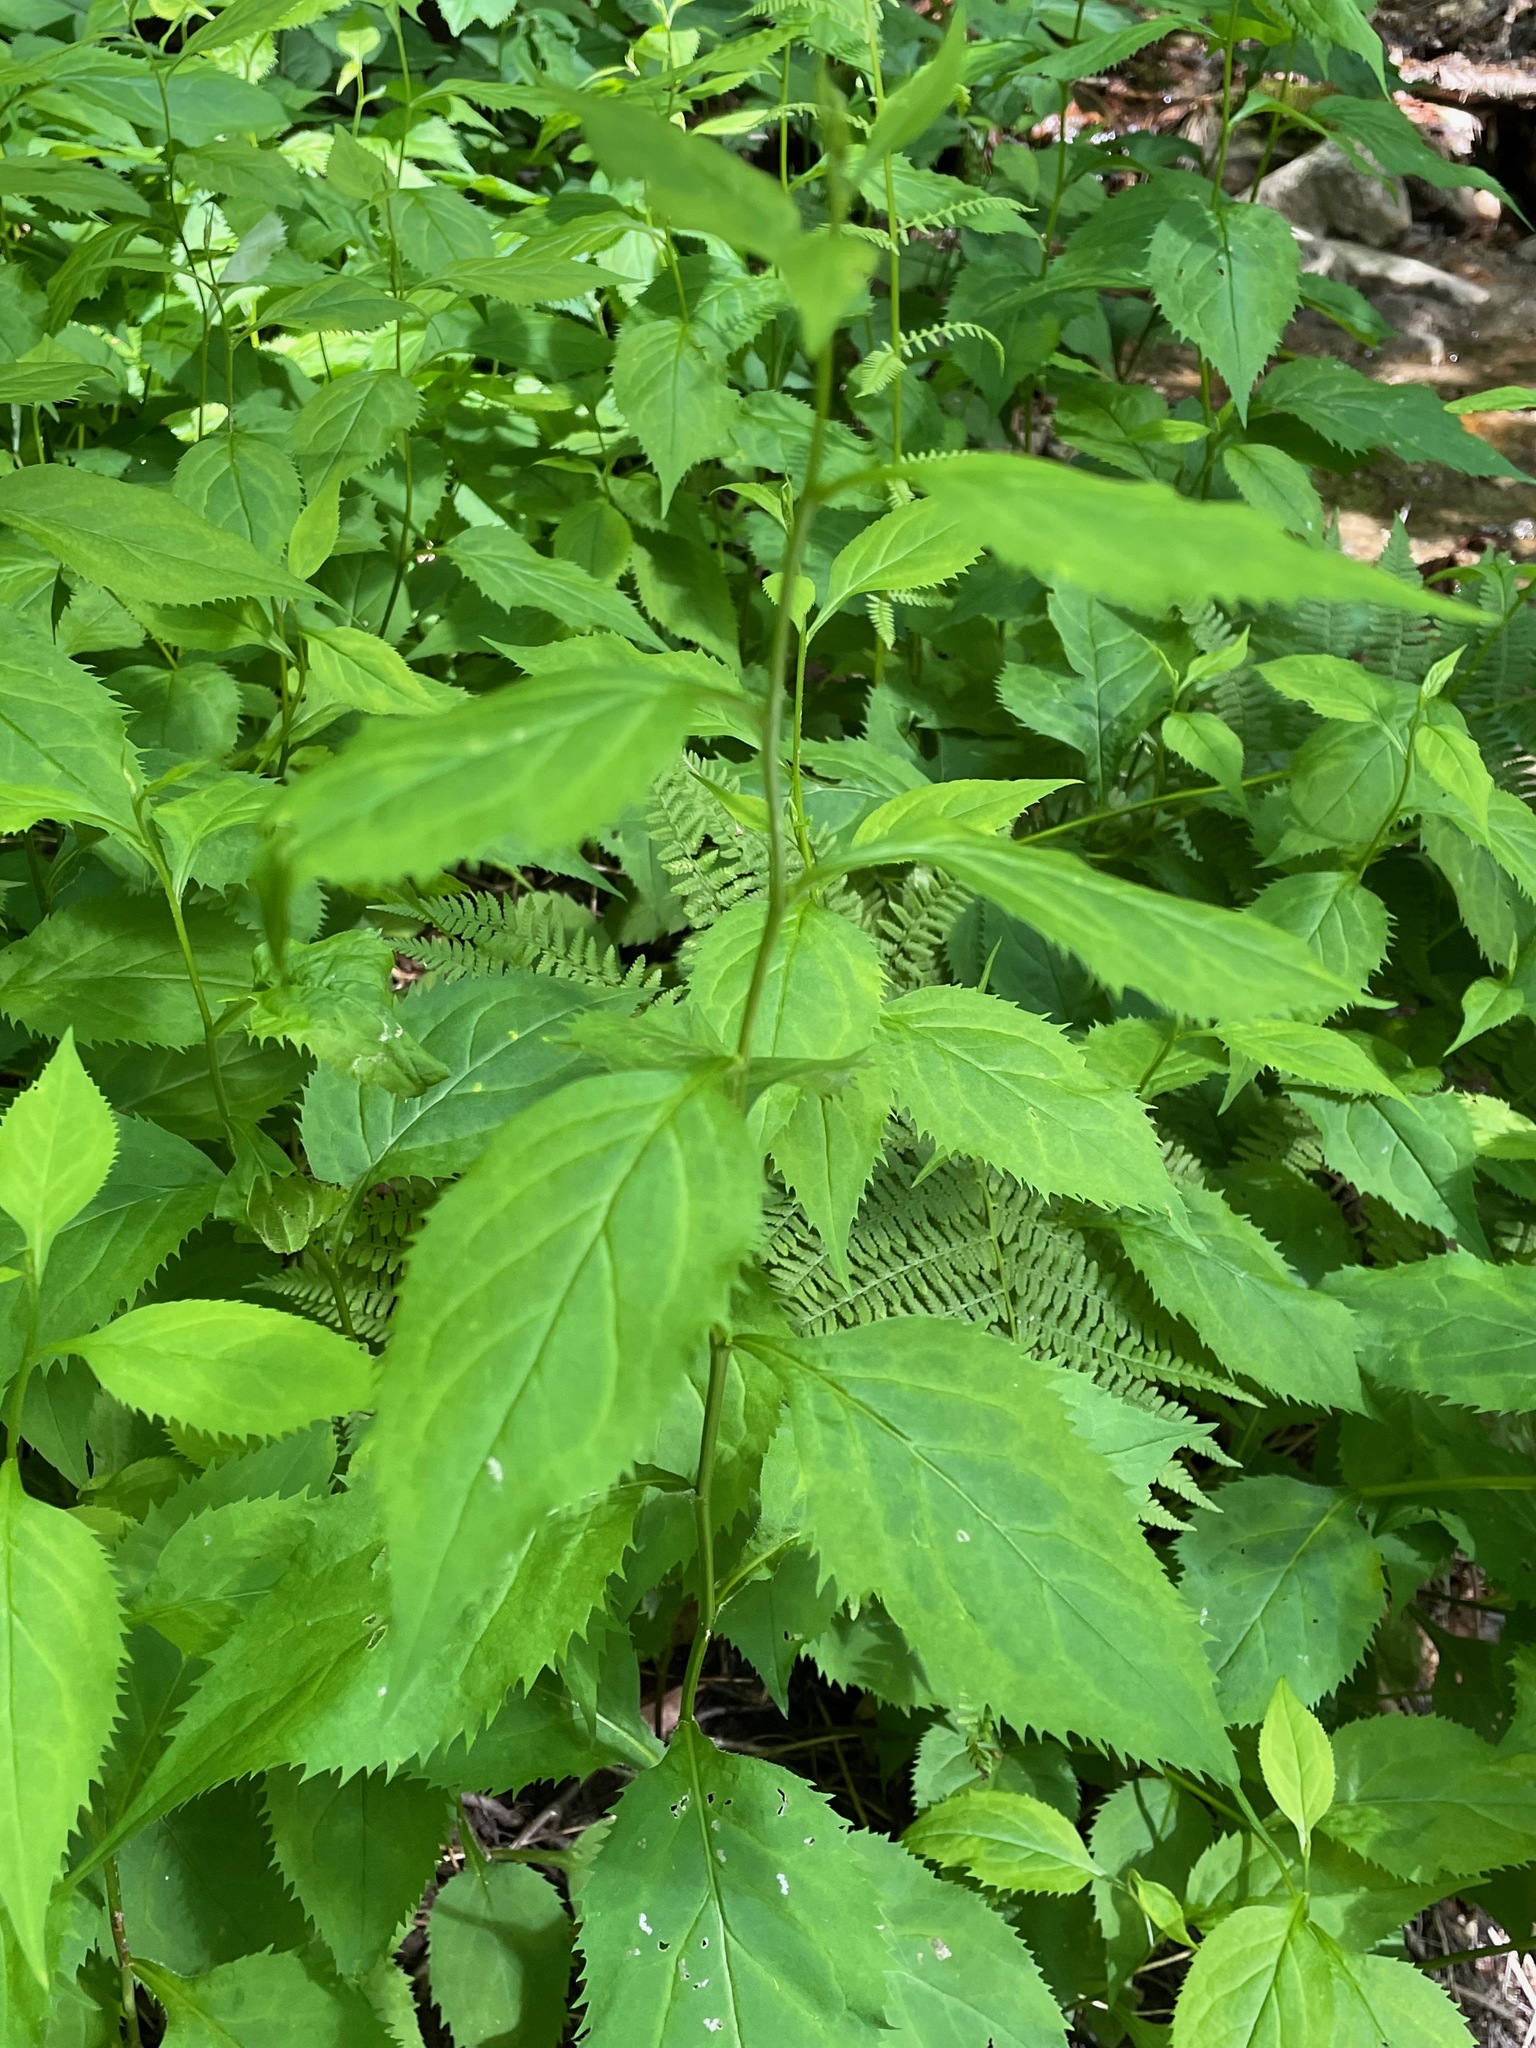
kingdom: Plantae
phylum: Tracheophyta
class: Magnoliopsida
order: Asterales
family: Asteraceae
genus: Solidago
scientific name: Solidago flexicaulis
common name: Zig-zag goldenrod
